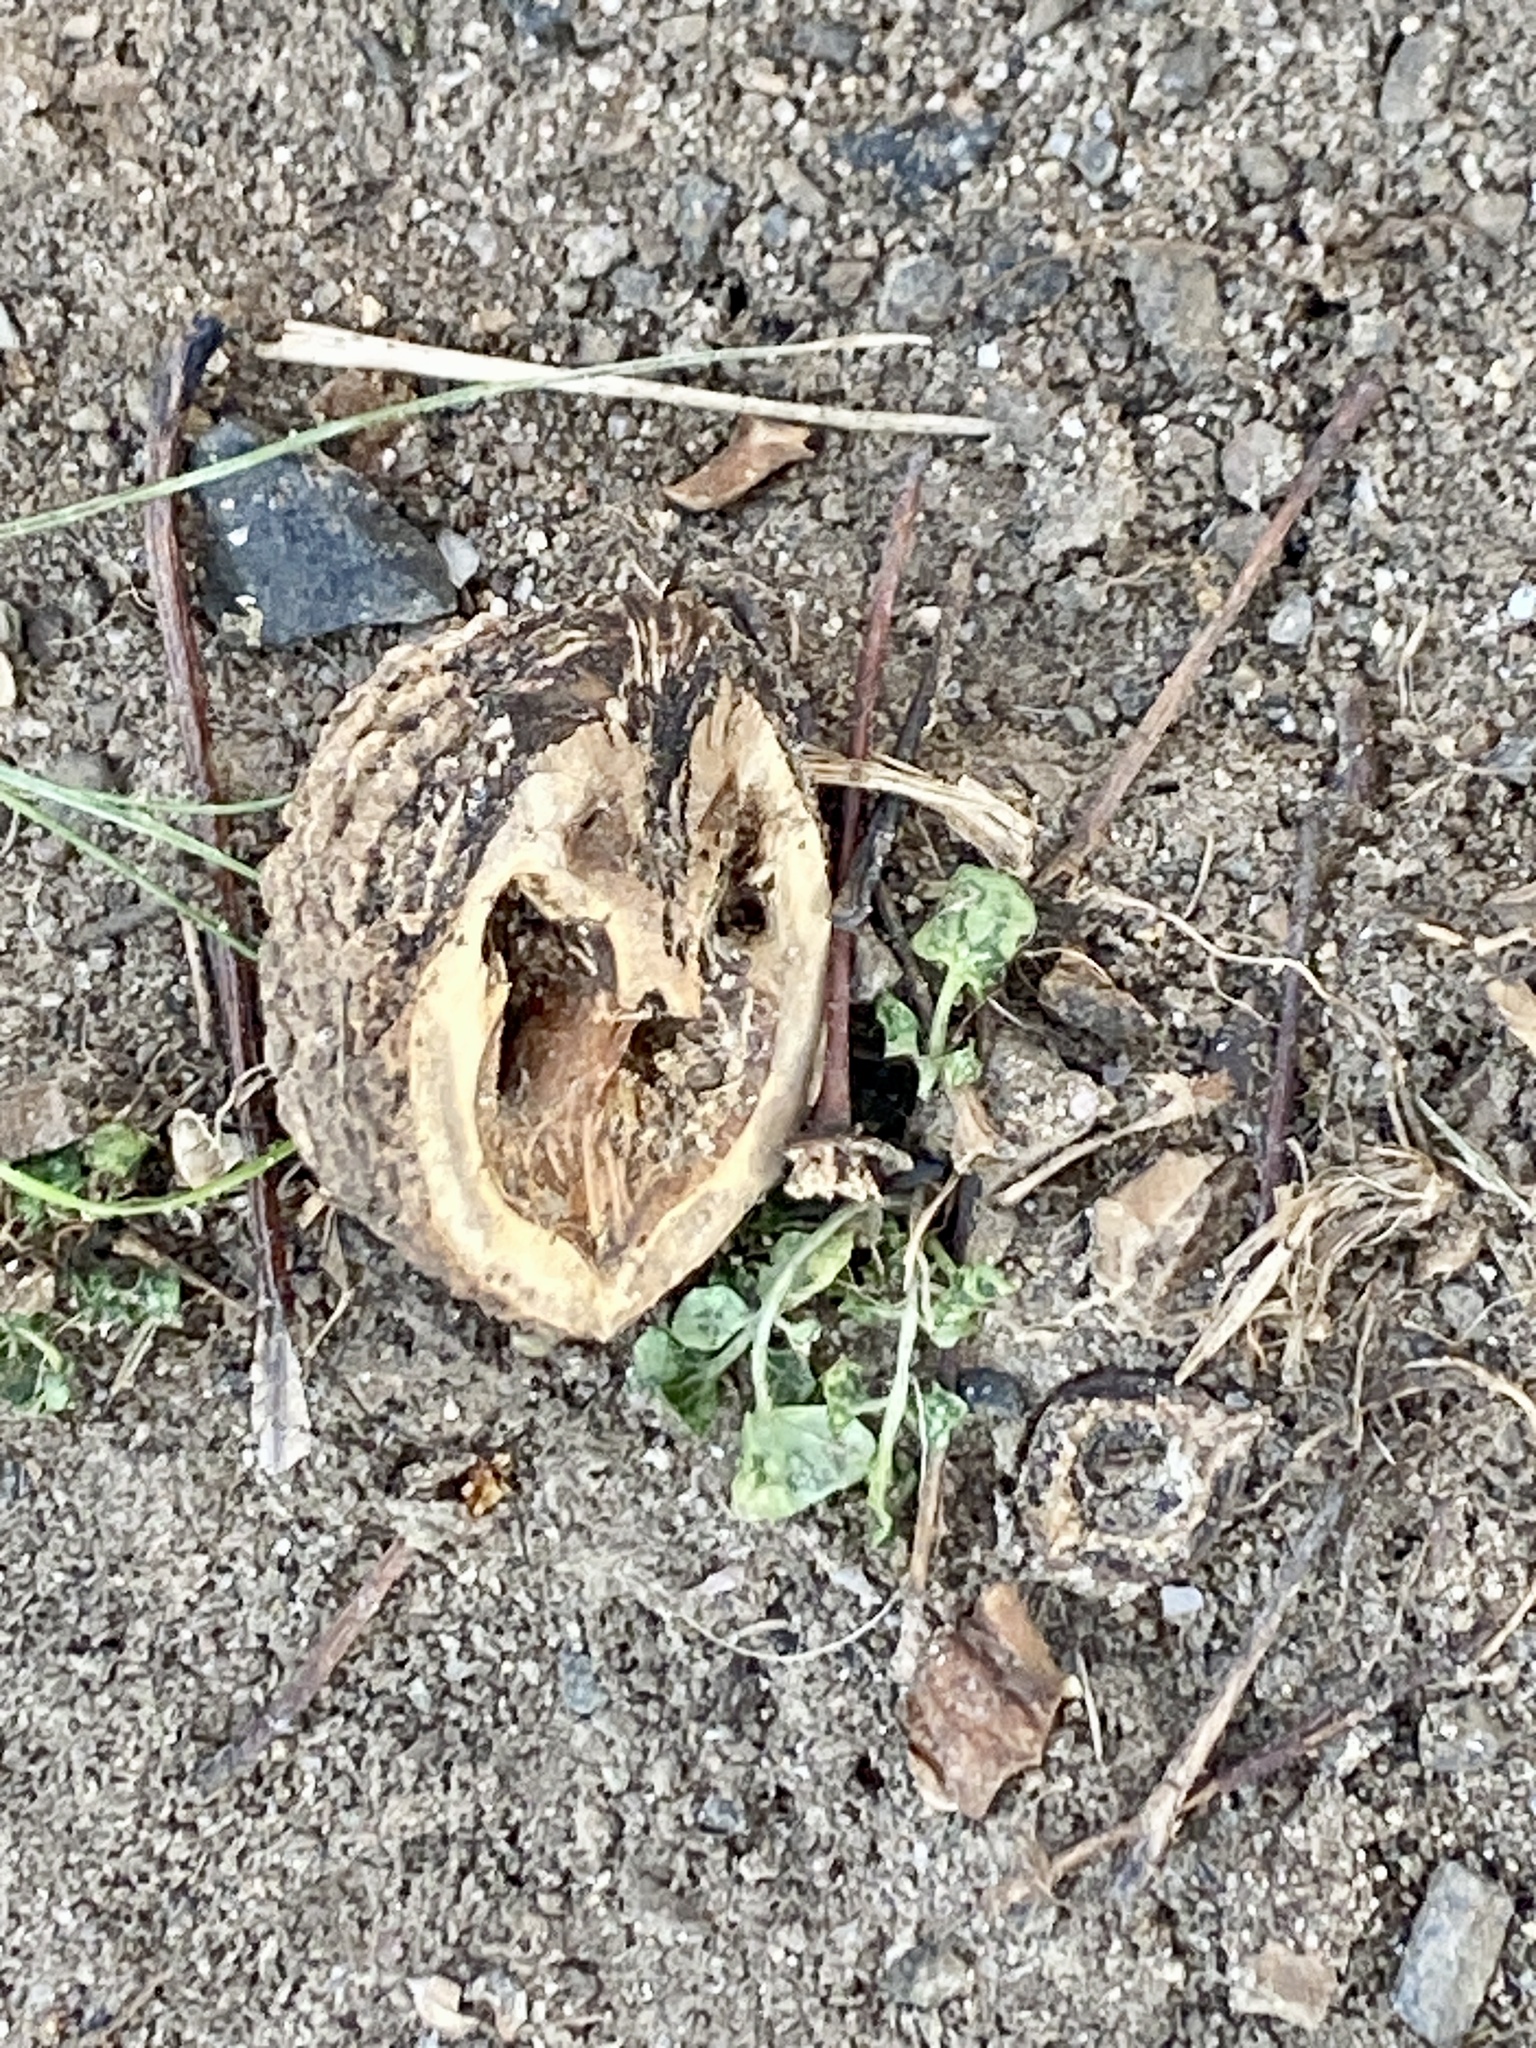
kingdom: Plantae
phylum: Tracheophyta
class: Magnoliopsida
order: Fagales
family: Juglandaceae
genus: Juglans
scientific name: Juglans nigra
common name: Black walnut
